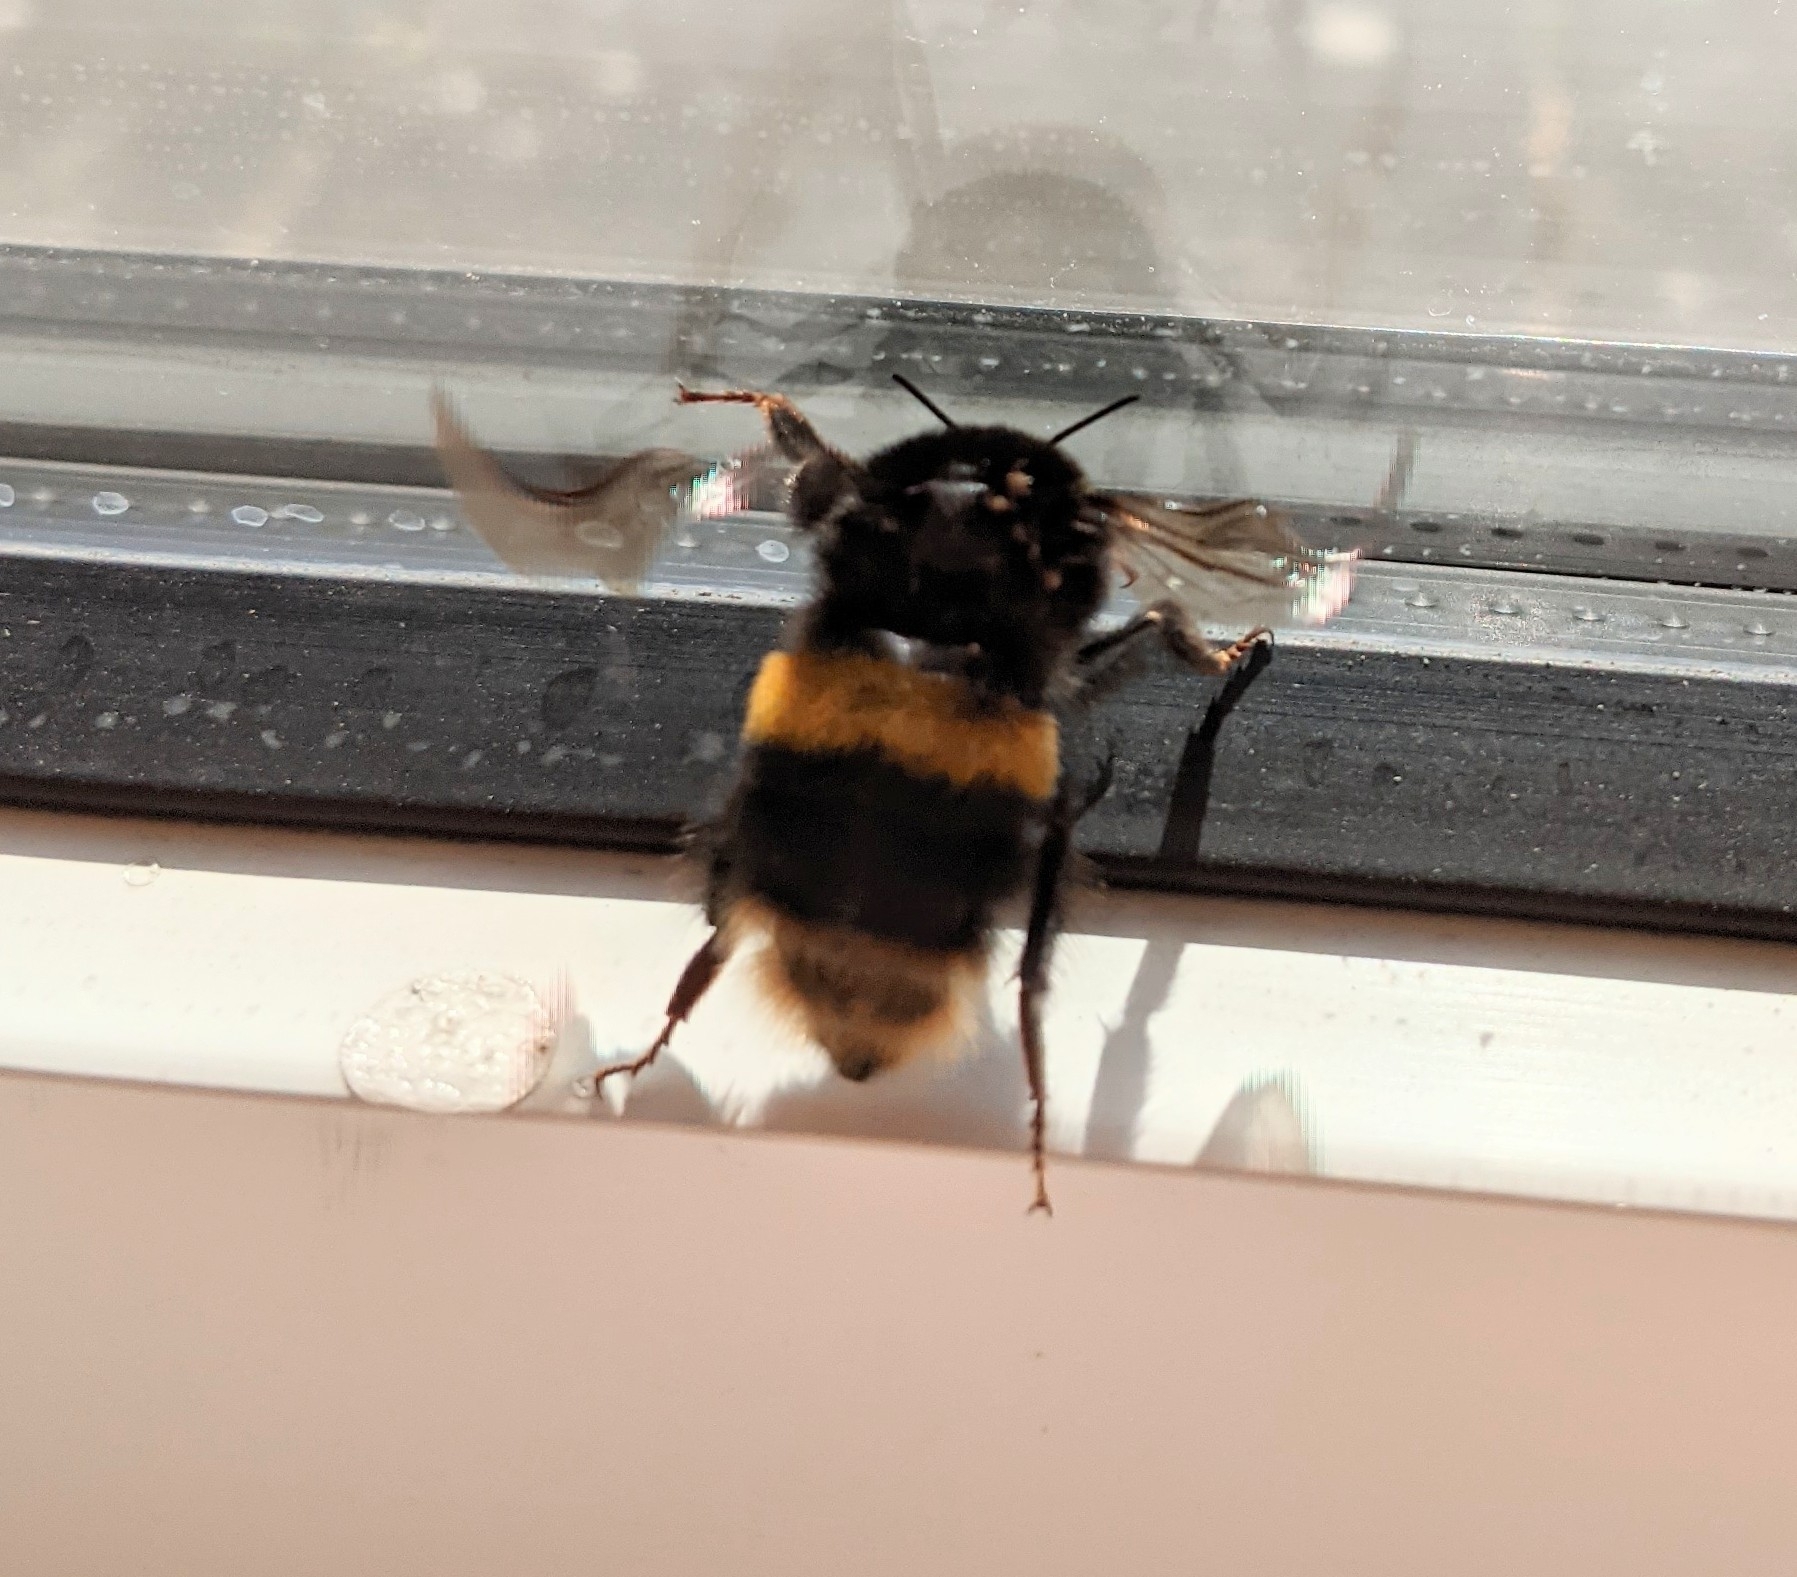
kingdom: Animalia
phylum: Arthropoda
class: Insecta
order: Hymenoptera
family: Apidae
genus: Bombus
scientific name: Bombus terrestris
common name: Buff-tailed bumblebee
